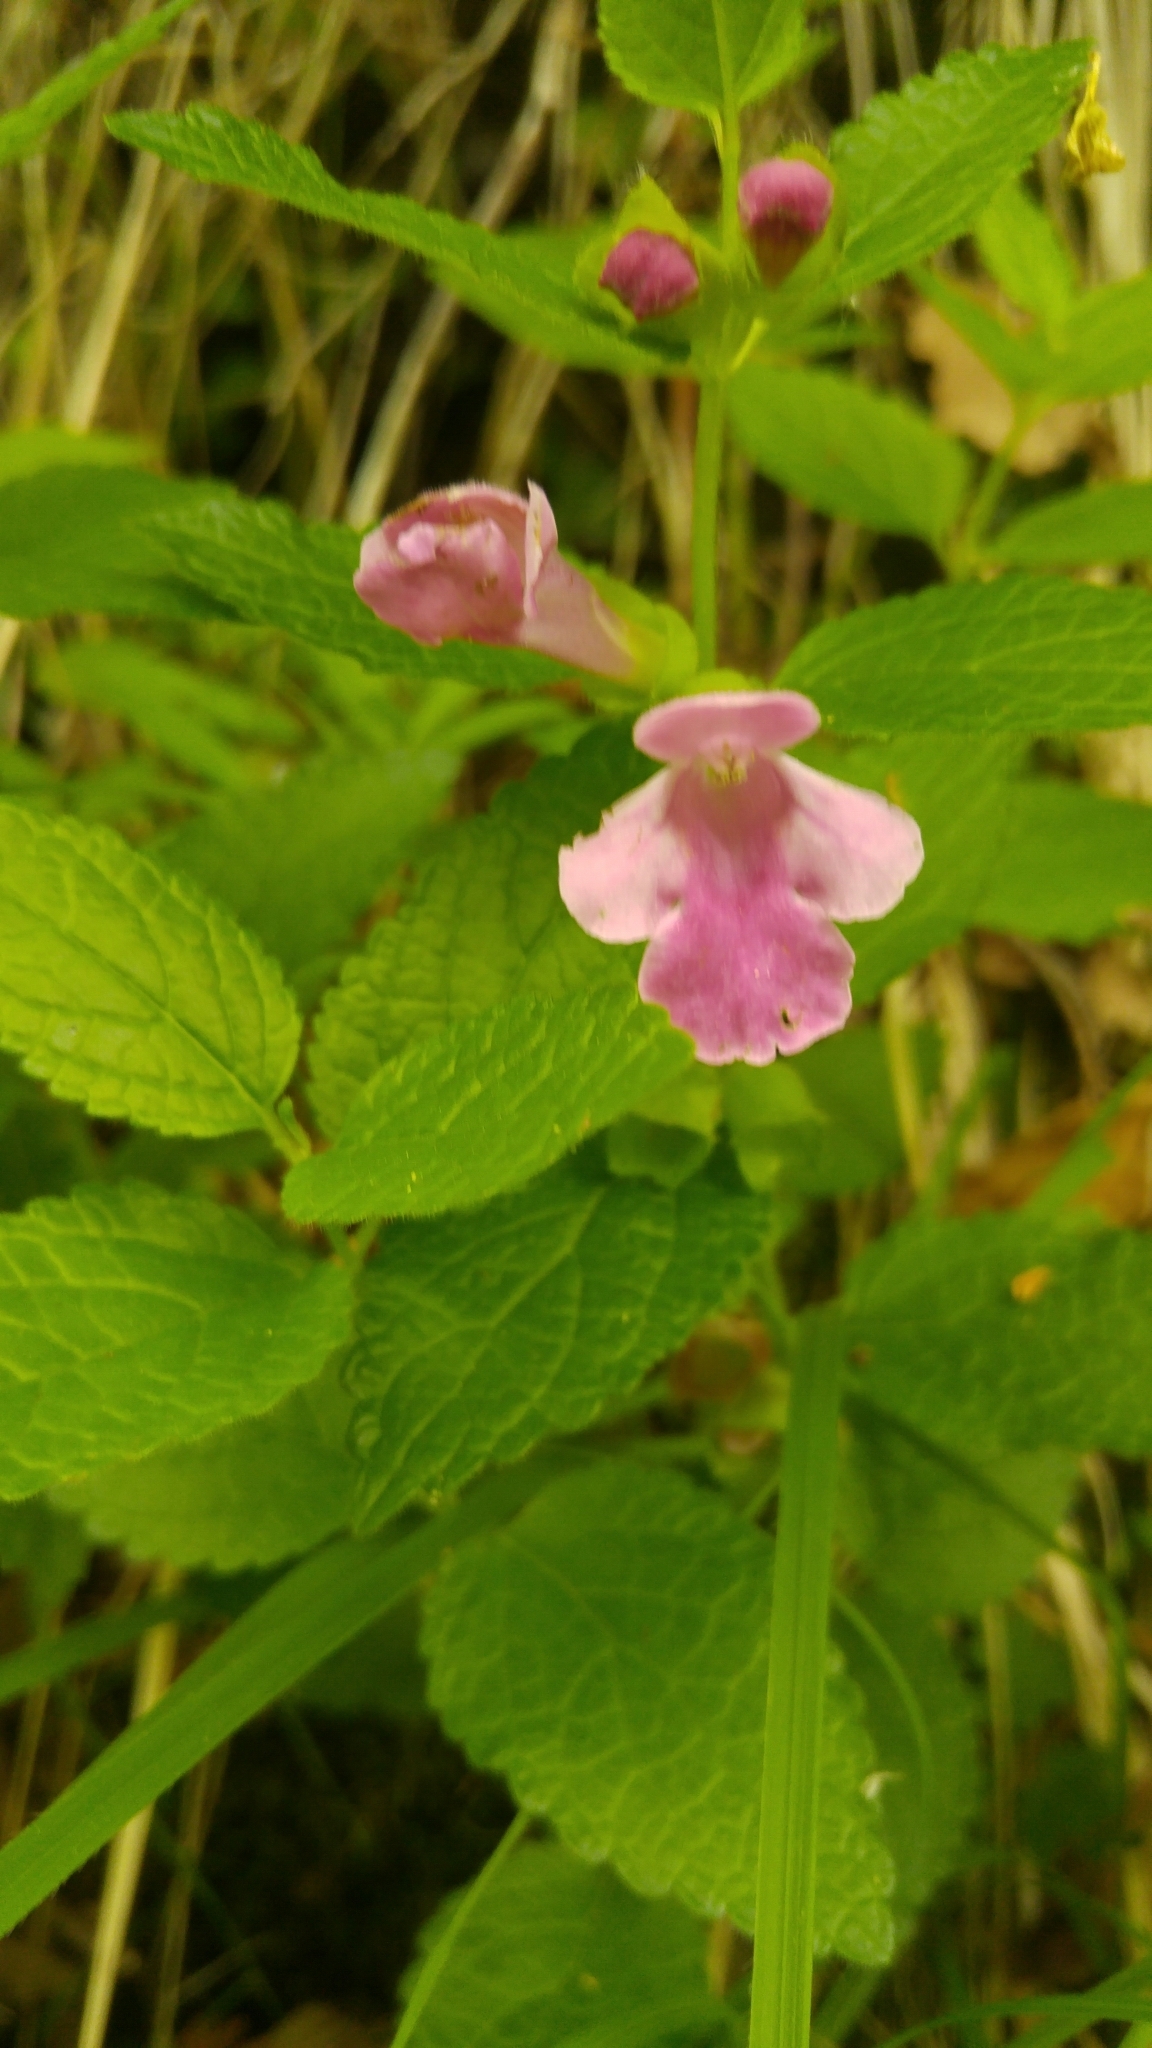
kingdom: Plantae
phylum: Tracheophyta
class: Magnoliopsida
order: Lamiales
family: Lamiaceae
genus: Melittis
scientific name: Melittis melissophyllum
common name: Bastard balm
